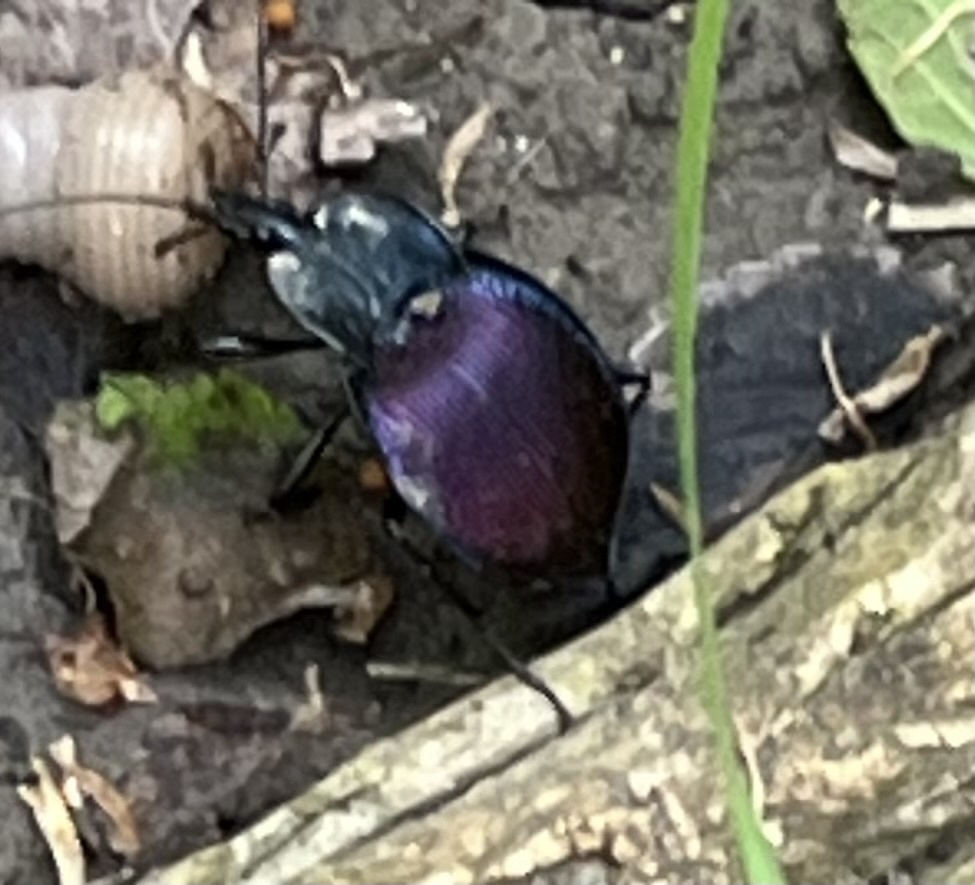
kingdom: Animalia
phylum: Arthropoda
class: Insecta
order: Coleoptera
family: Carabidae
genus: Scaphinotus
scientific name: Scaphinotus elevatus
